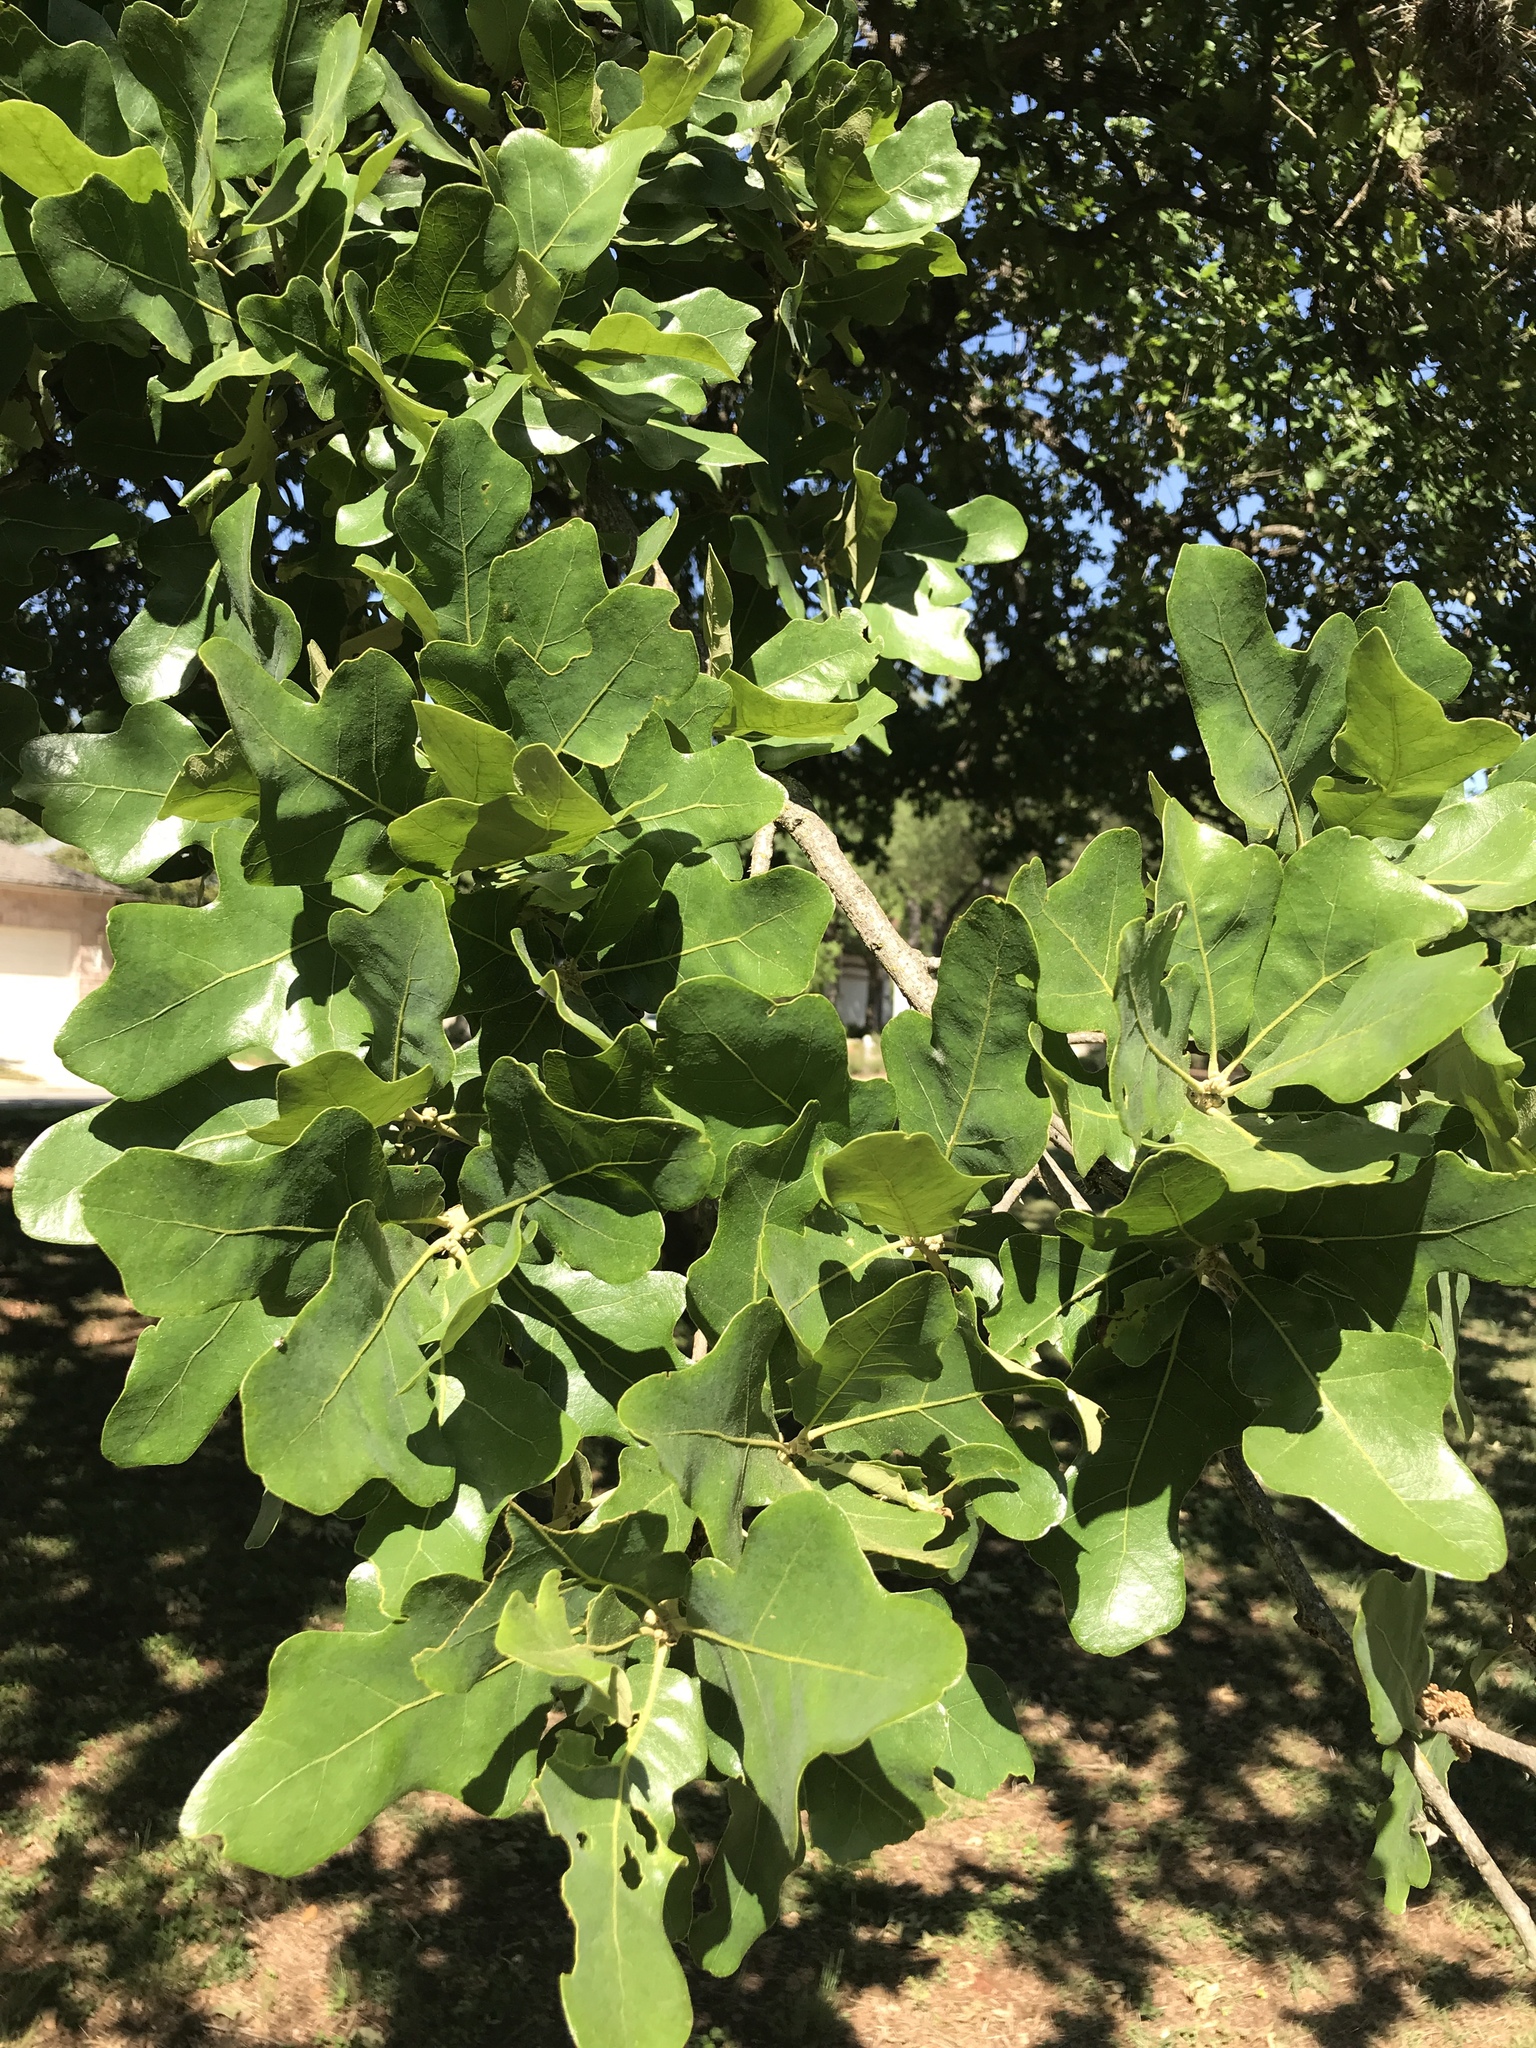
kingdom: Plantae
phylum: Tracheophyta
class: Magnoliopsida
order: Fagales
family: Fagaceae
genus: Quercus
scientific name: Quercus stellata
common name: Post oak
